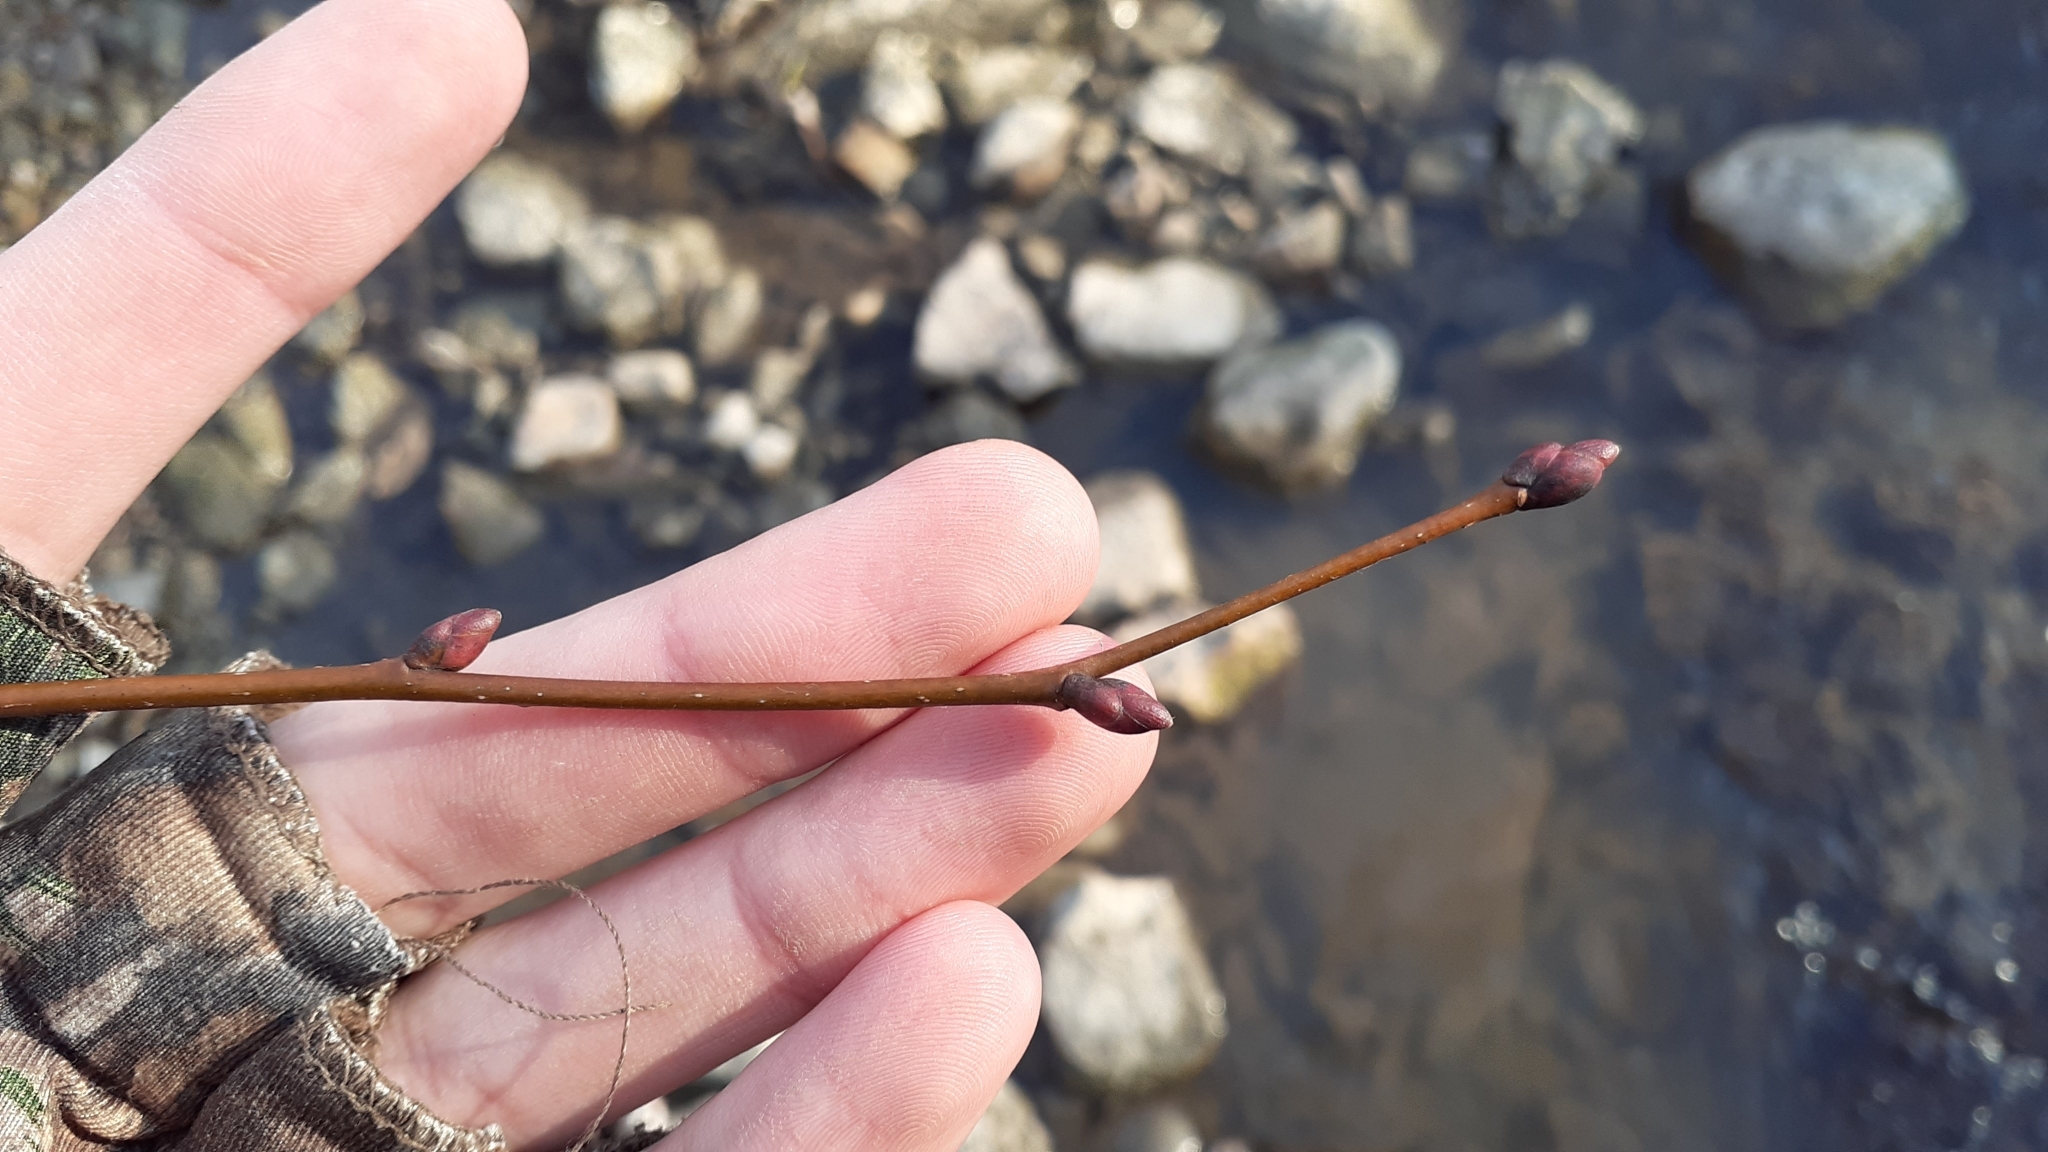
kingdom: Plantae
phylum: Tracheophyta
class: Magnoliopsida
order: Malvales
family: Malvaceae
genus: Tilia
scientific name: Tilia cordata
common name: Small-leaved lime
